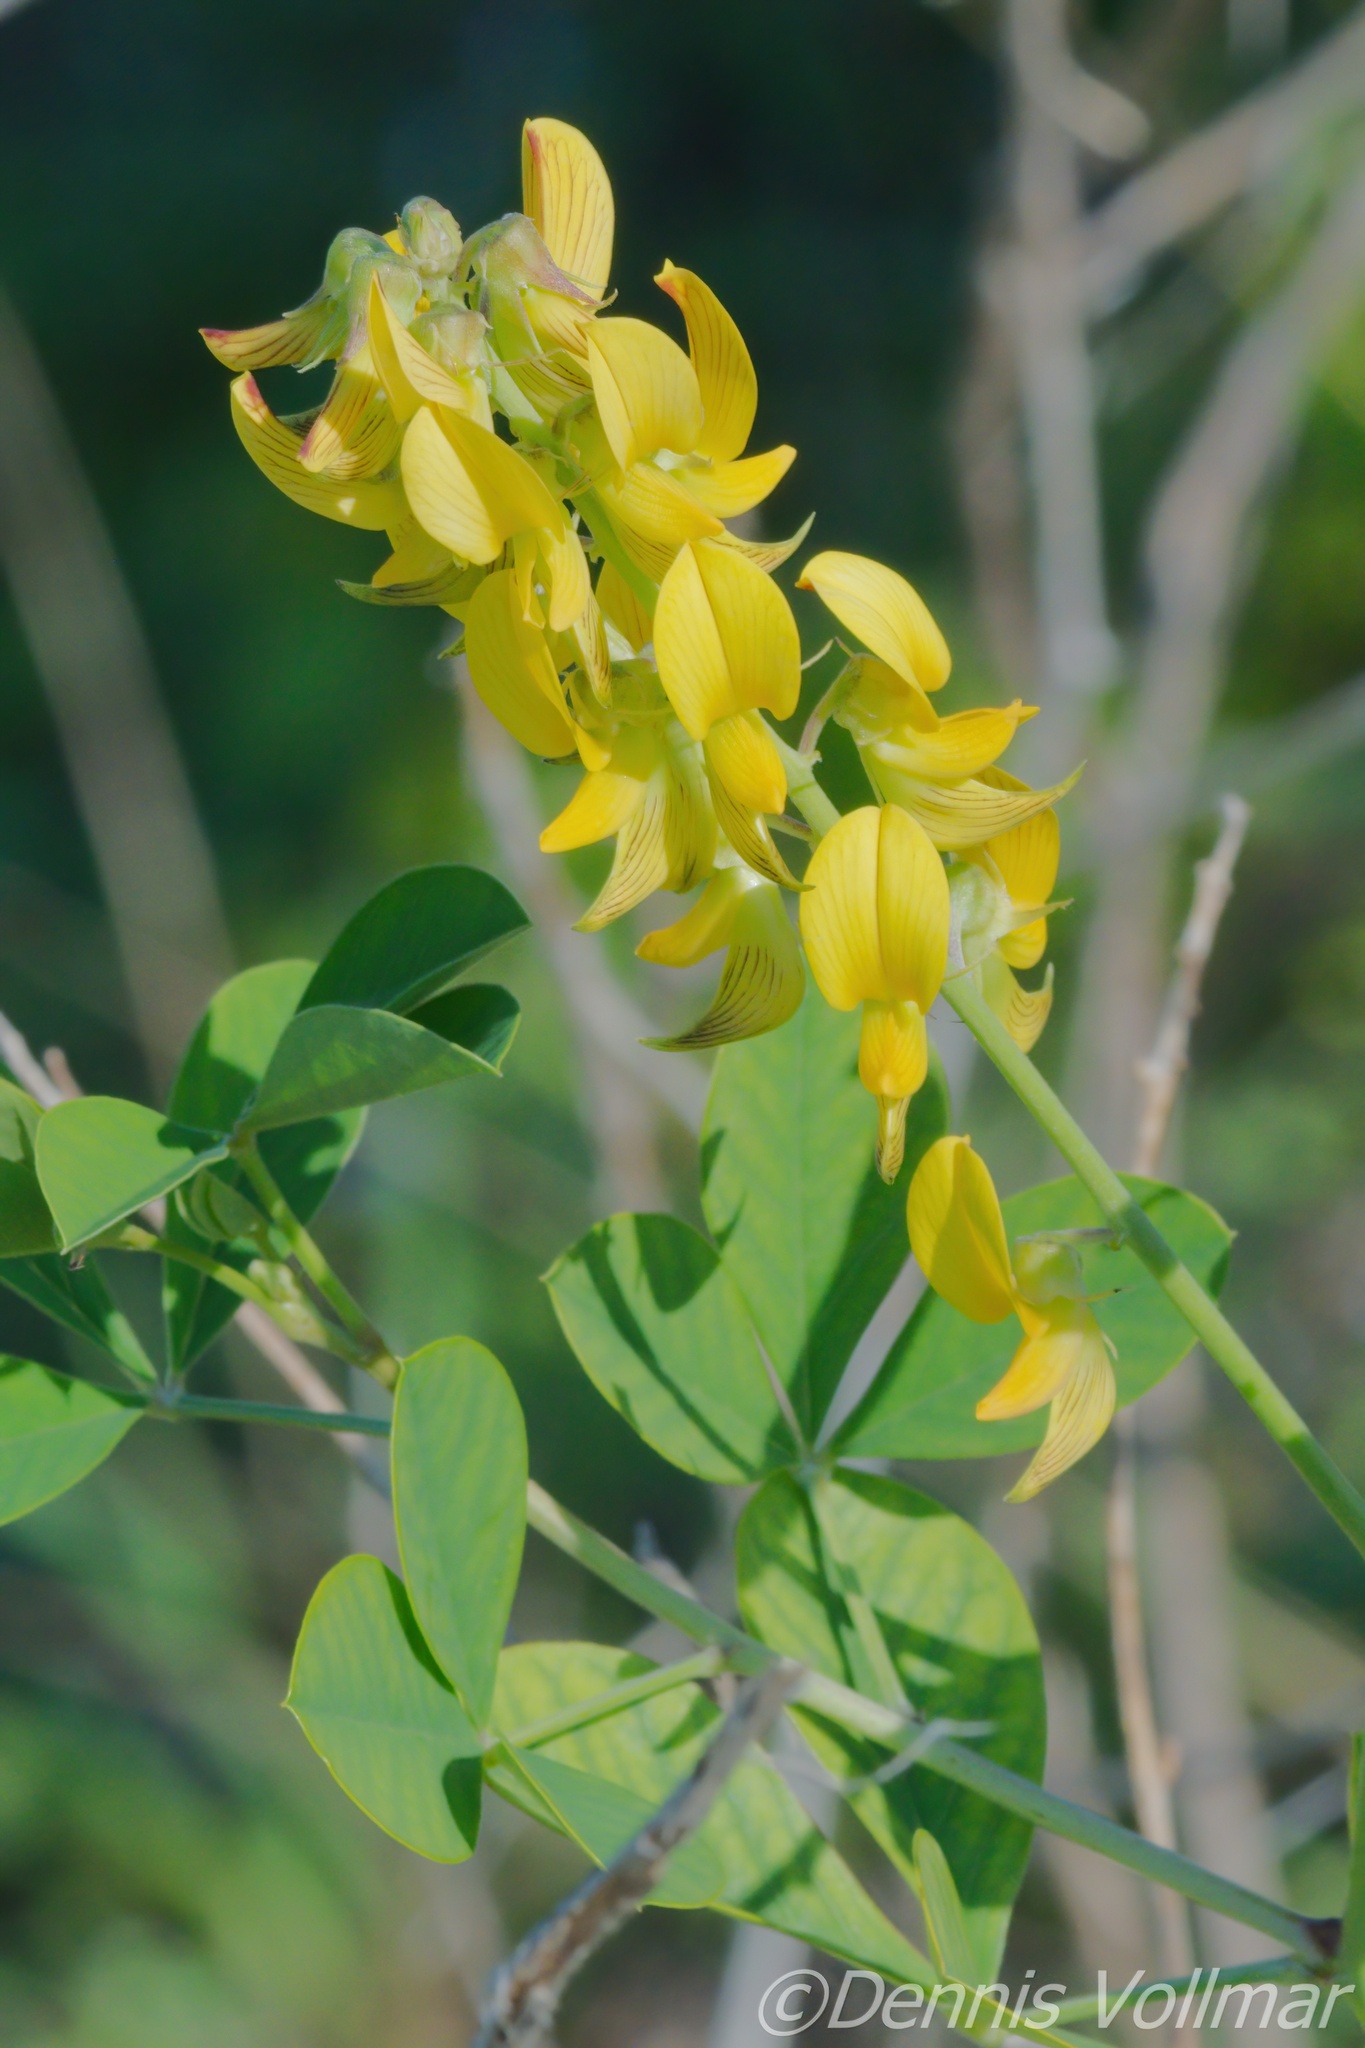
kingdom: Plantae
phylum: Tracheophyta
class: Magnoliopsida
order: Fabales
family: Fabaceae
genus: Crotalaria
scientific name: Crotalaria pallida
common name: Smooth rattlebox
